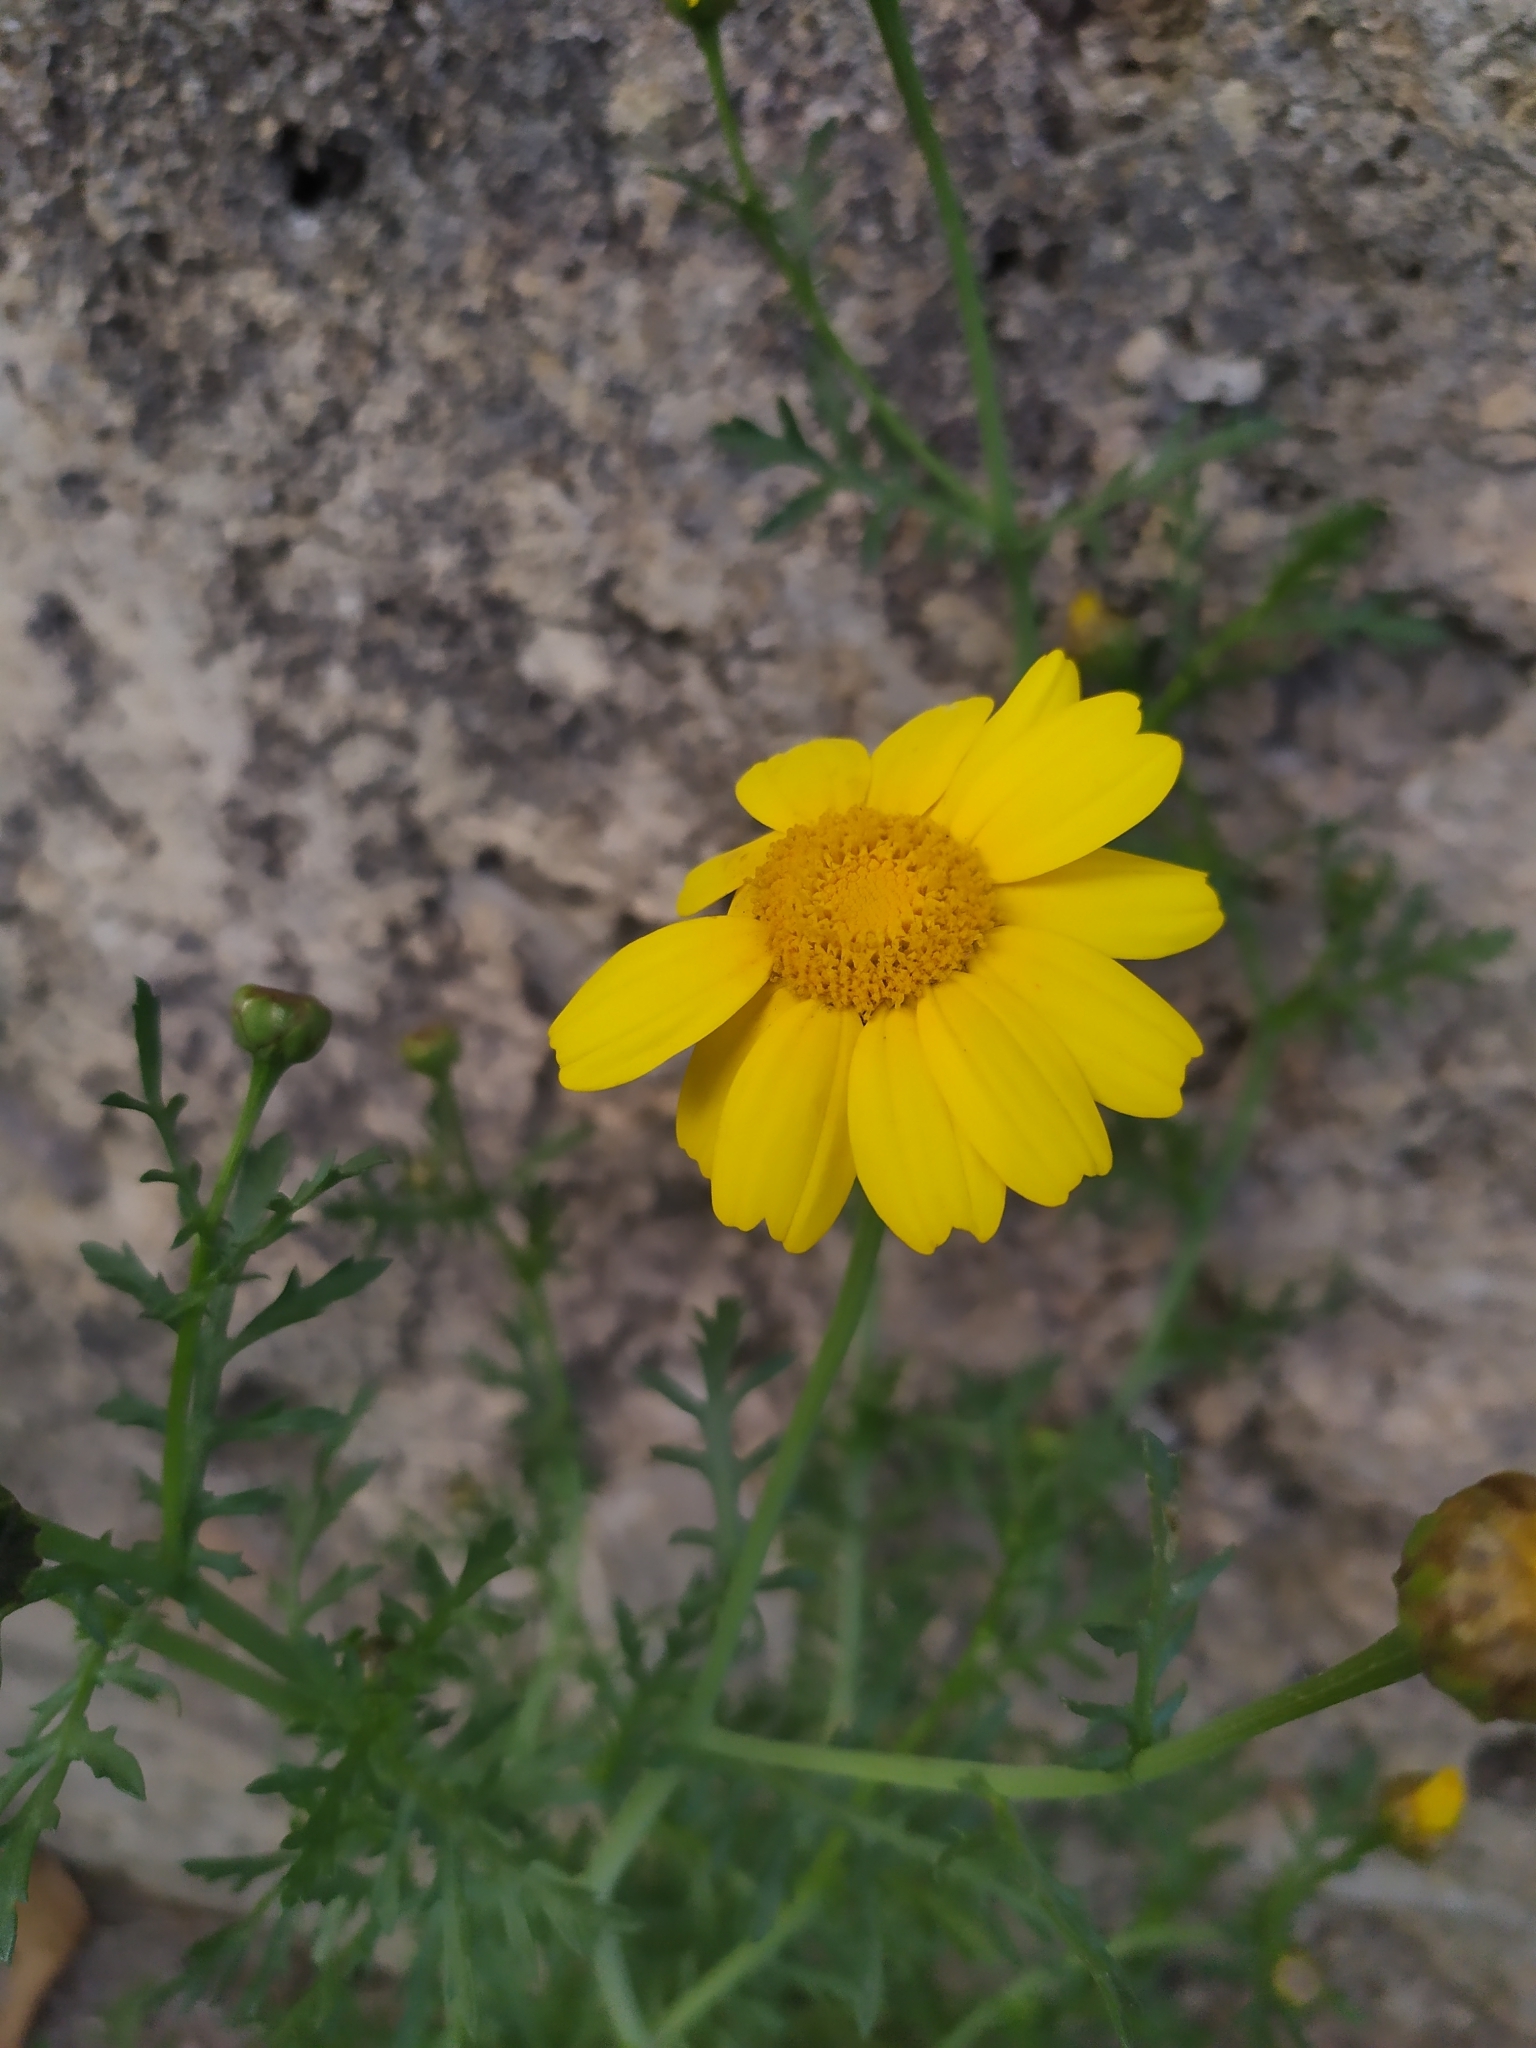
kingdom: Plantae
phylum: Tracheophyta
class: Magnoliopsida
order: Asterales
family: Asteraceae
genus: Glebionis
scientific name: Glebionis coronaria
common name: Crowndaisy
